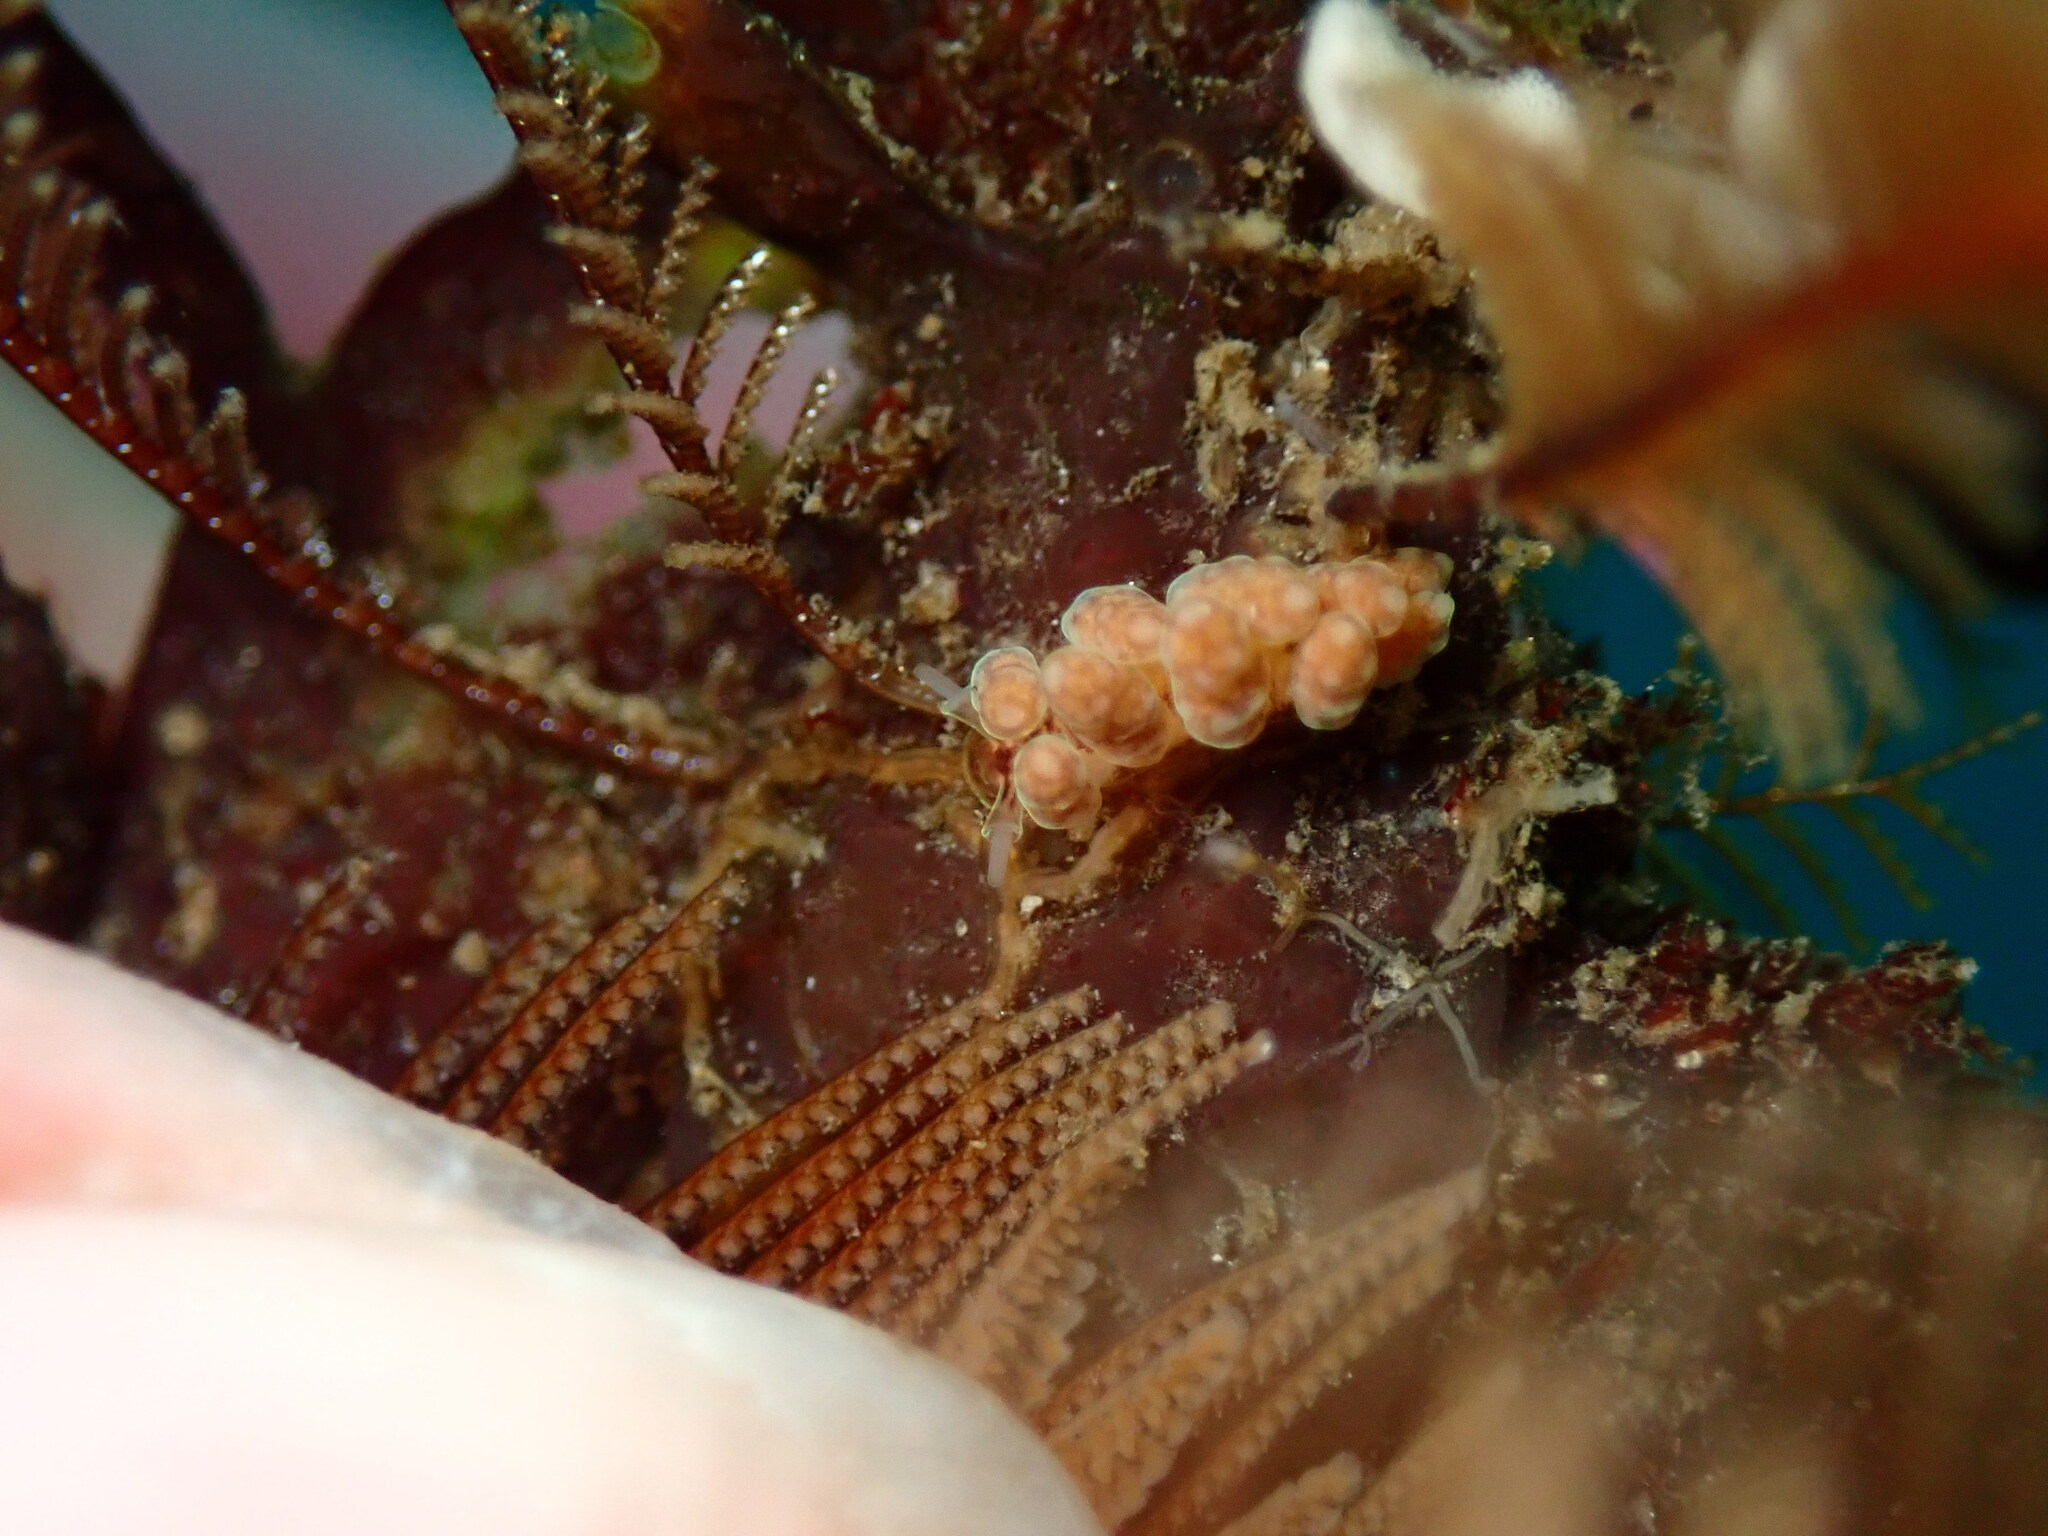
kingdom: Animalia
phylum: Mollusca
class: Gastropoda
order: Nudibranchia
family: Dotidae
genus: Doto
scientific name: Doto columbiana
